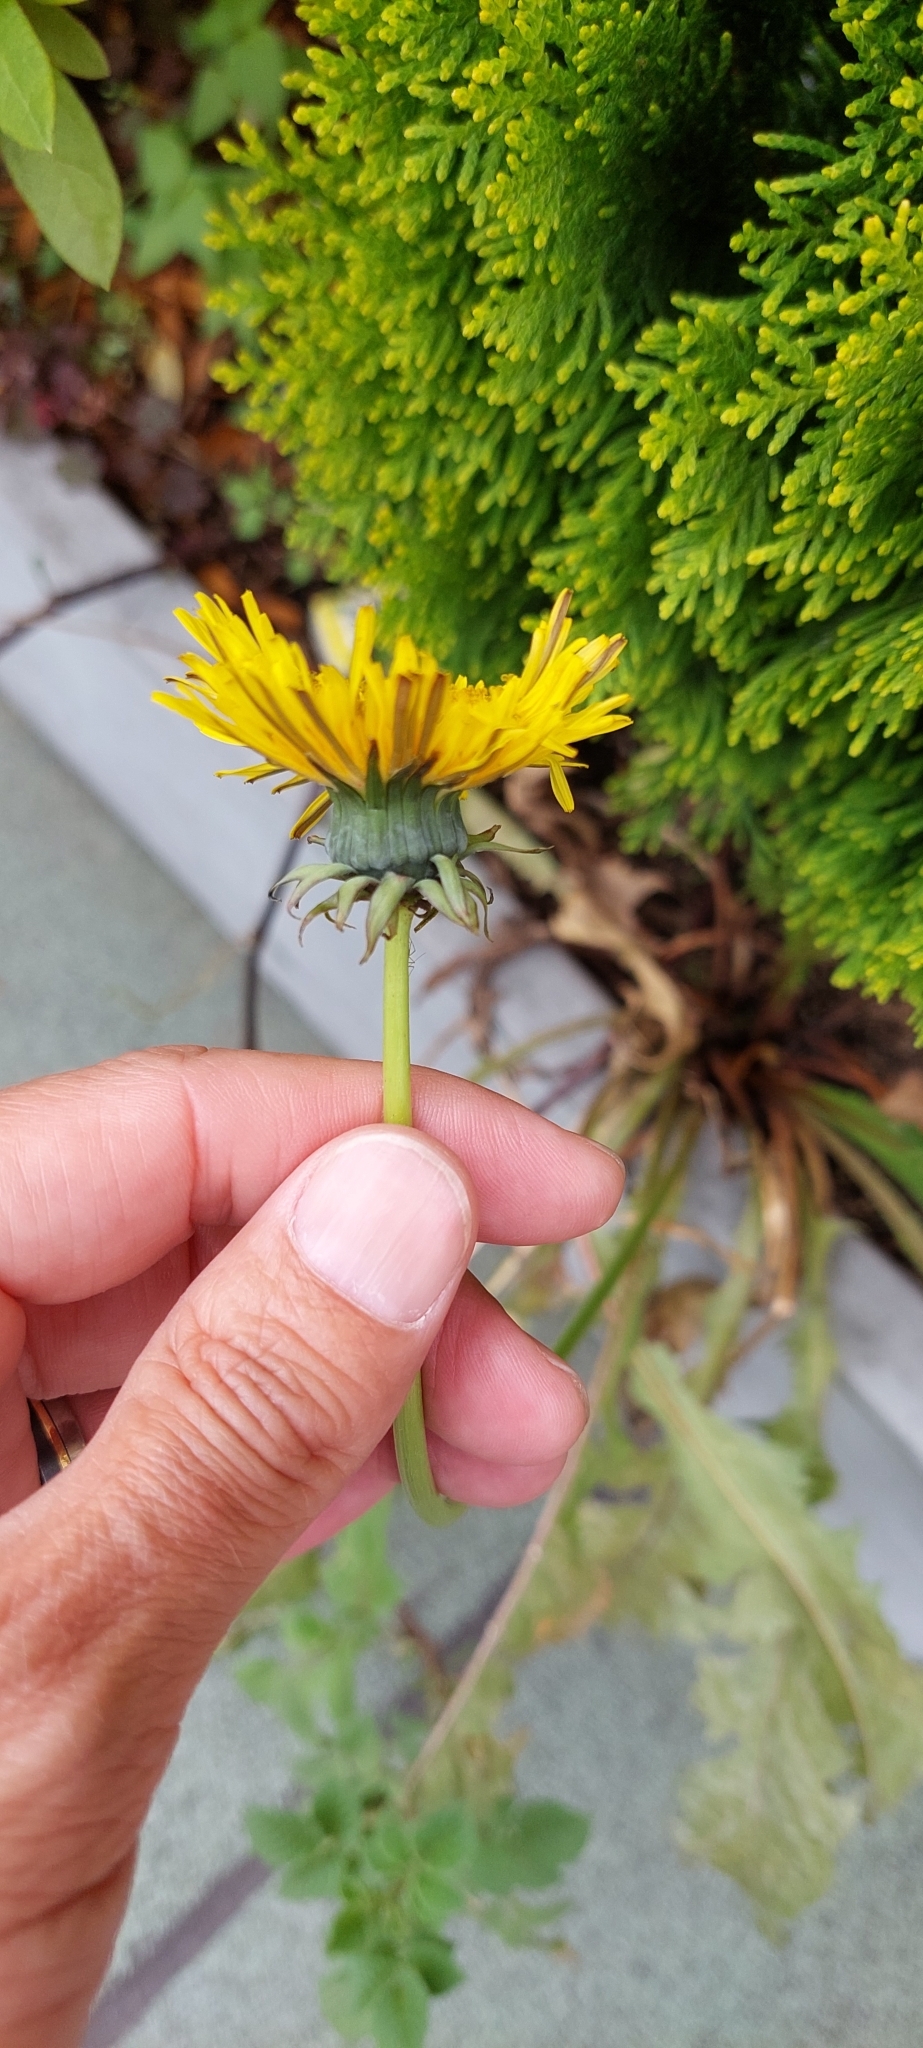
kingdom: Plantae
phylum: Tracheophyta
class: Magnoliopsida
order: Asterales
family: Asteraceae
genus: Taraxacum
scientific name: Taraxacum officinale
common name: Common dandelion
